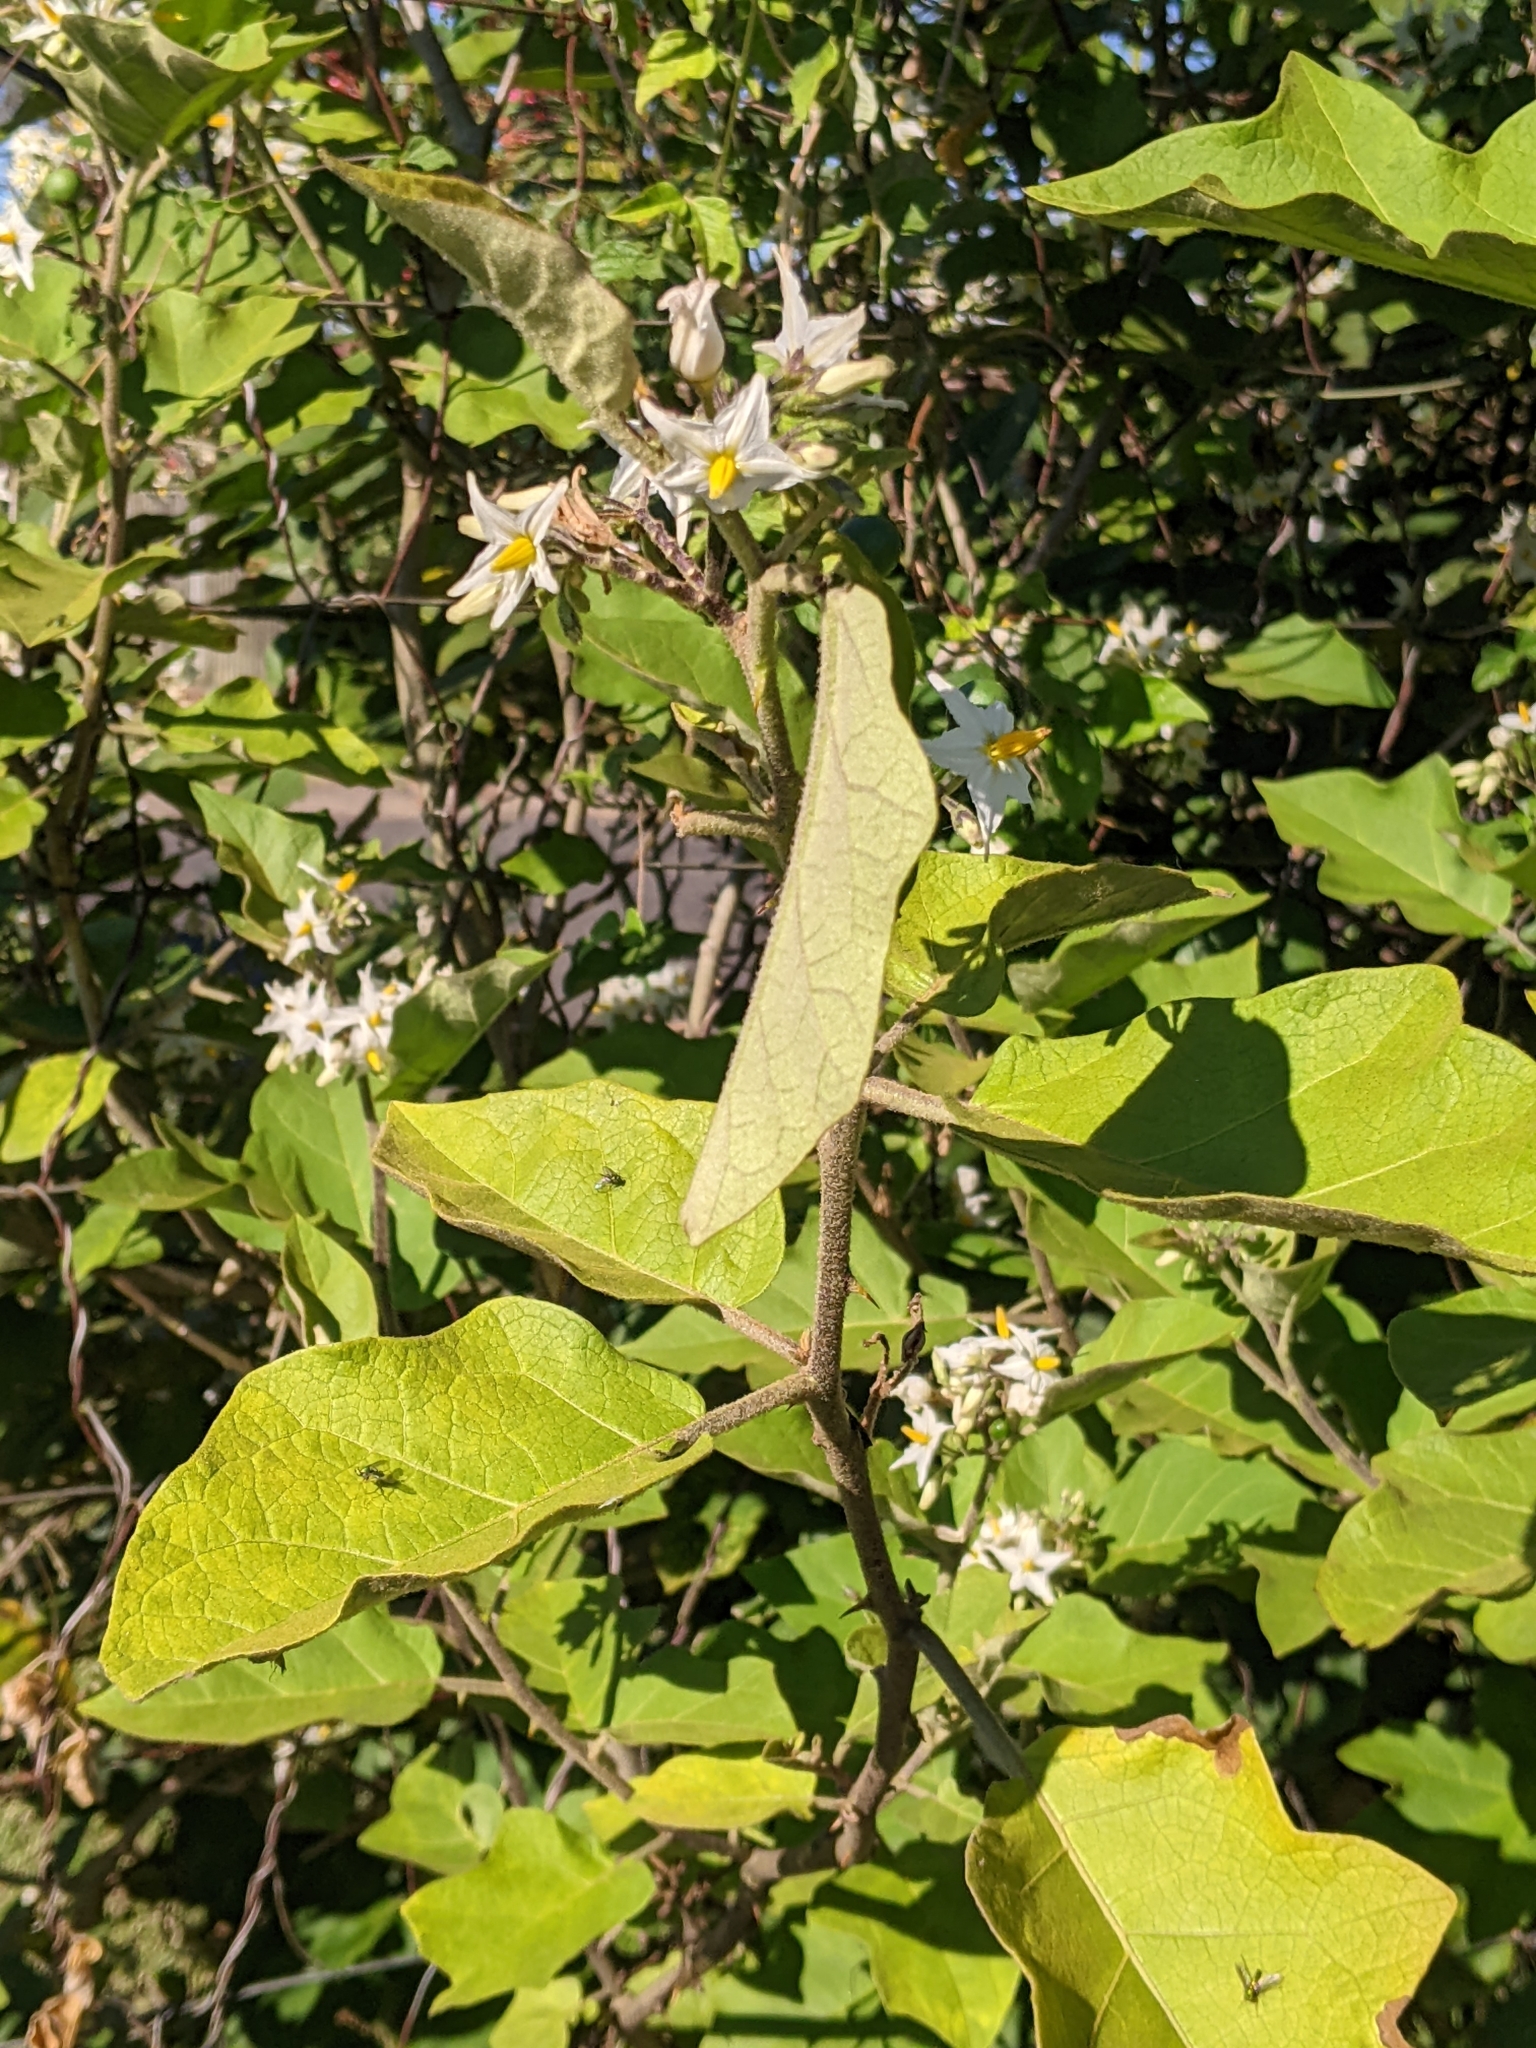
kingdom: Plantae
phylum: Tracheophyta
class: Magnoliopsida
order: Solanales
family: Solanaceae
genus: Solanum
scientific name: Solanum torvum
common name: Turkey berry
